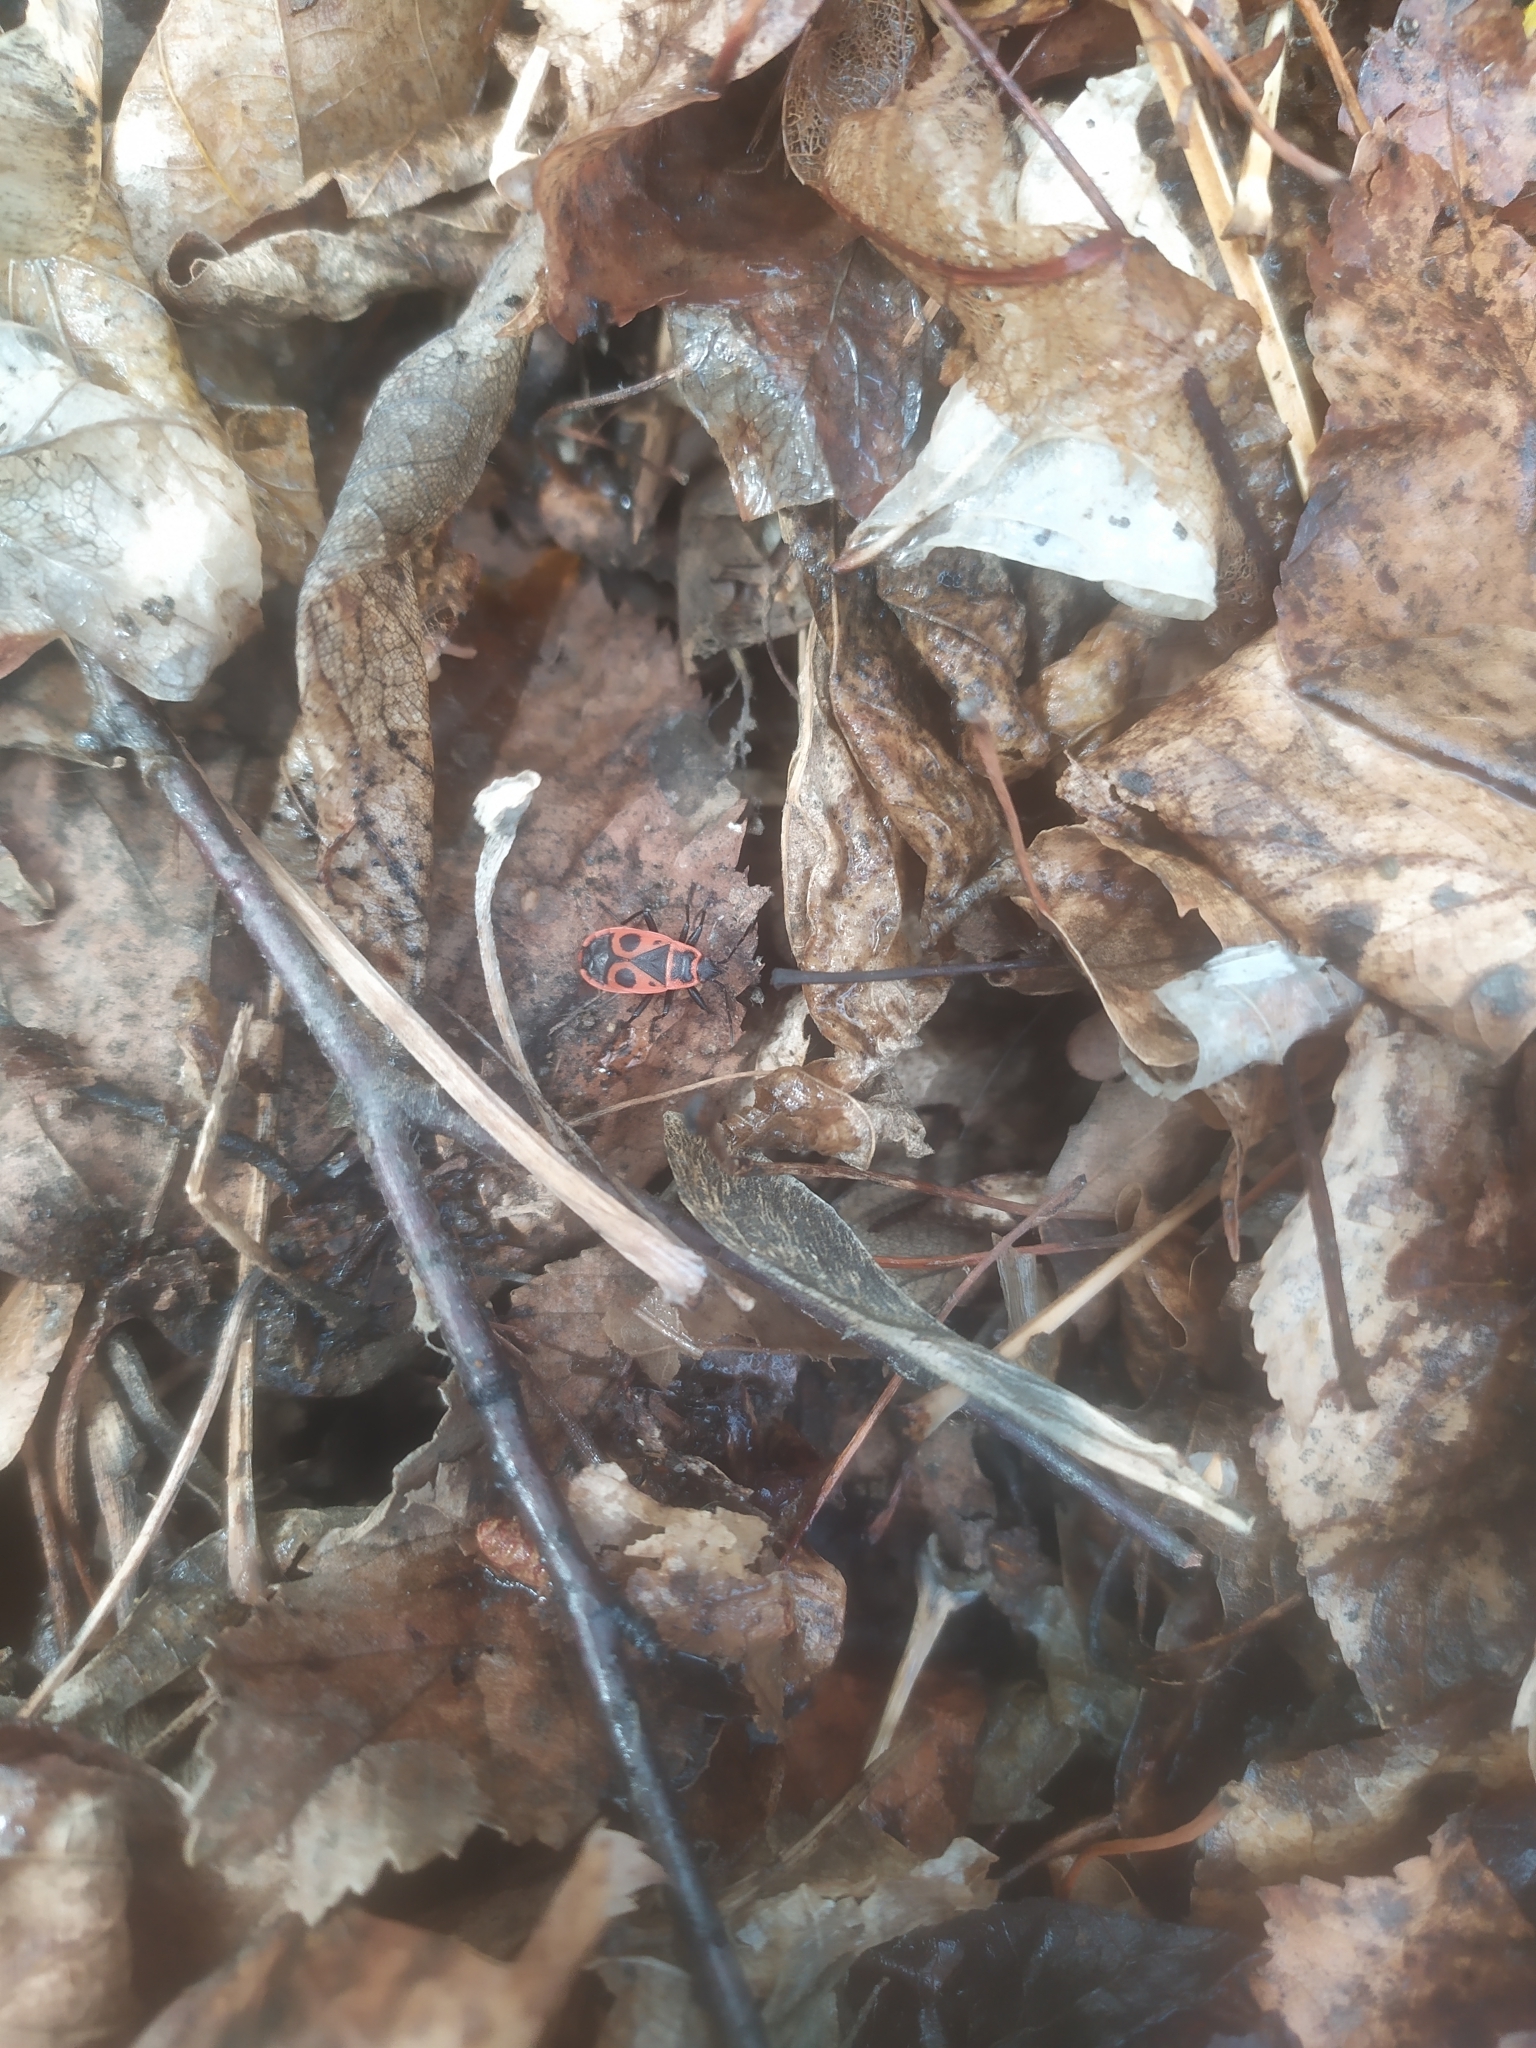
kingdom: Animalia
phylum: Arthropoda
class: Insecta
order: Hemiptera
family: Pyrrhocoridae
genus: Pyrrhocoris
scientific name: Pyrrhocoris apterus
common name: Firebug
